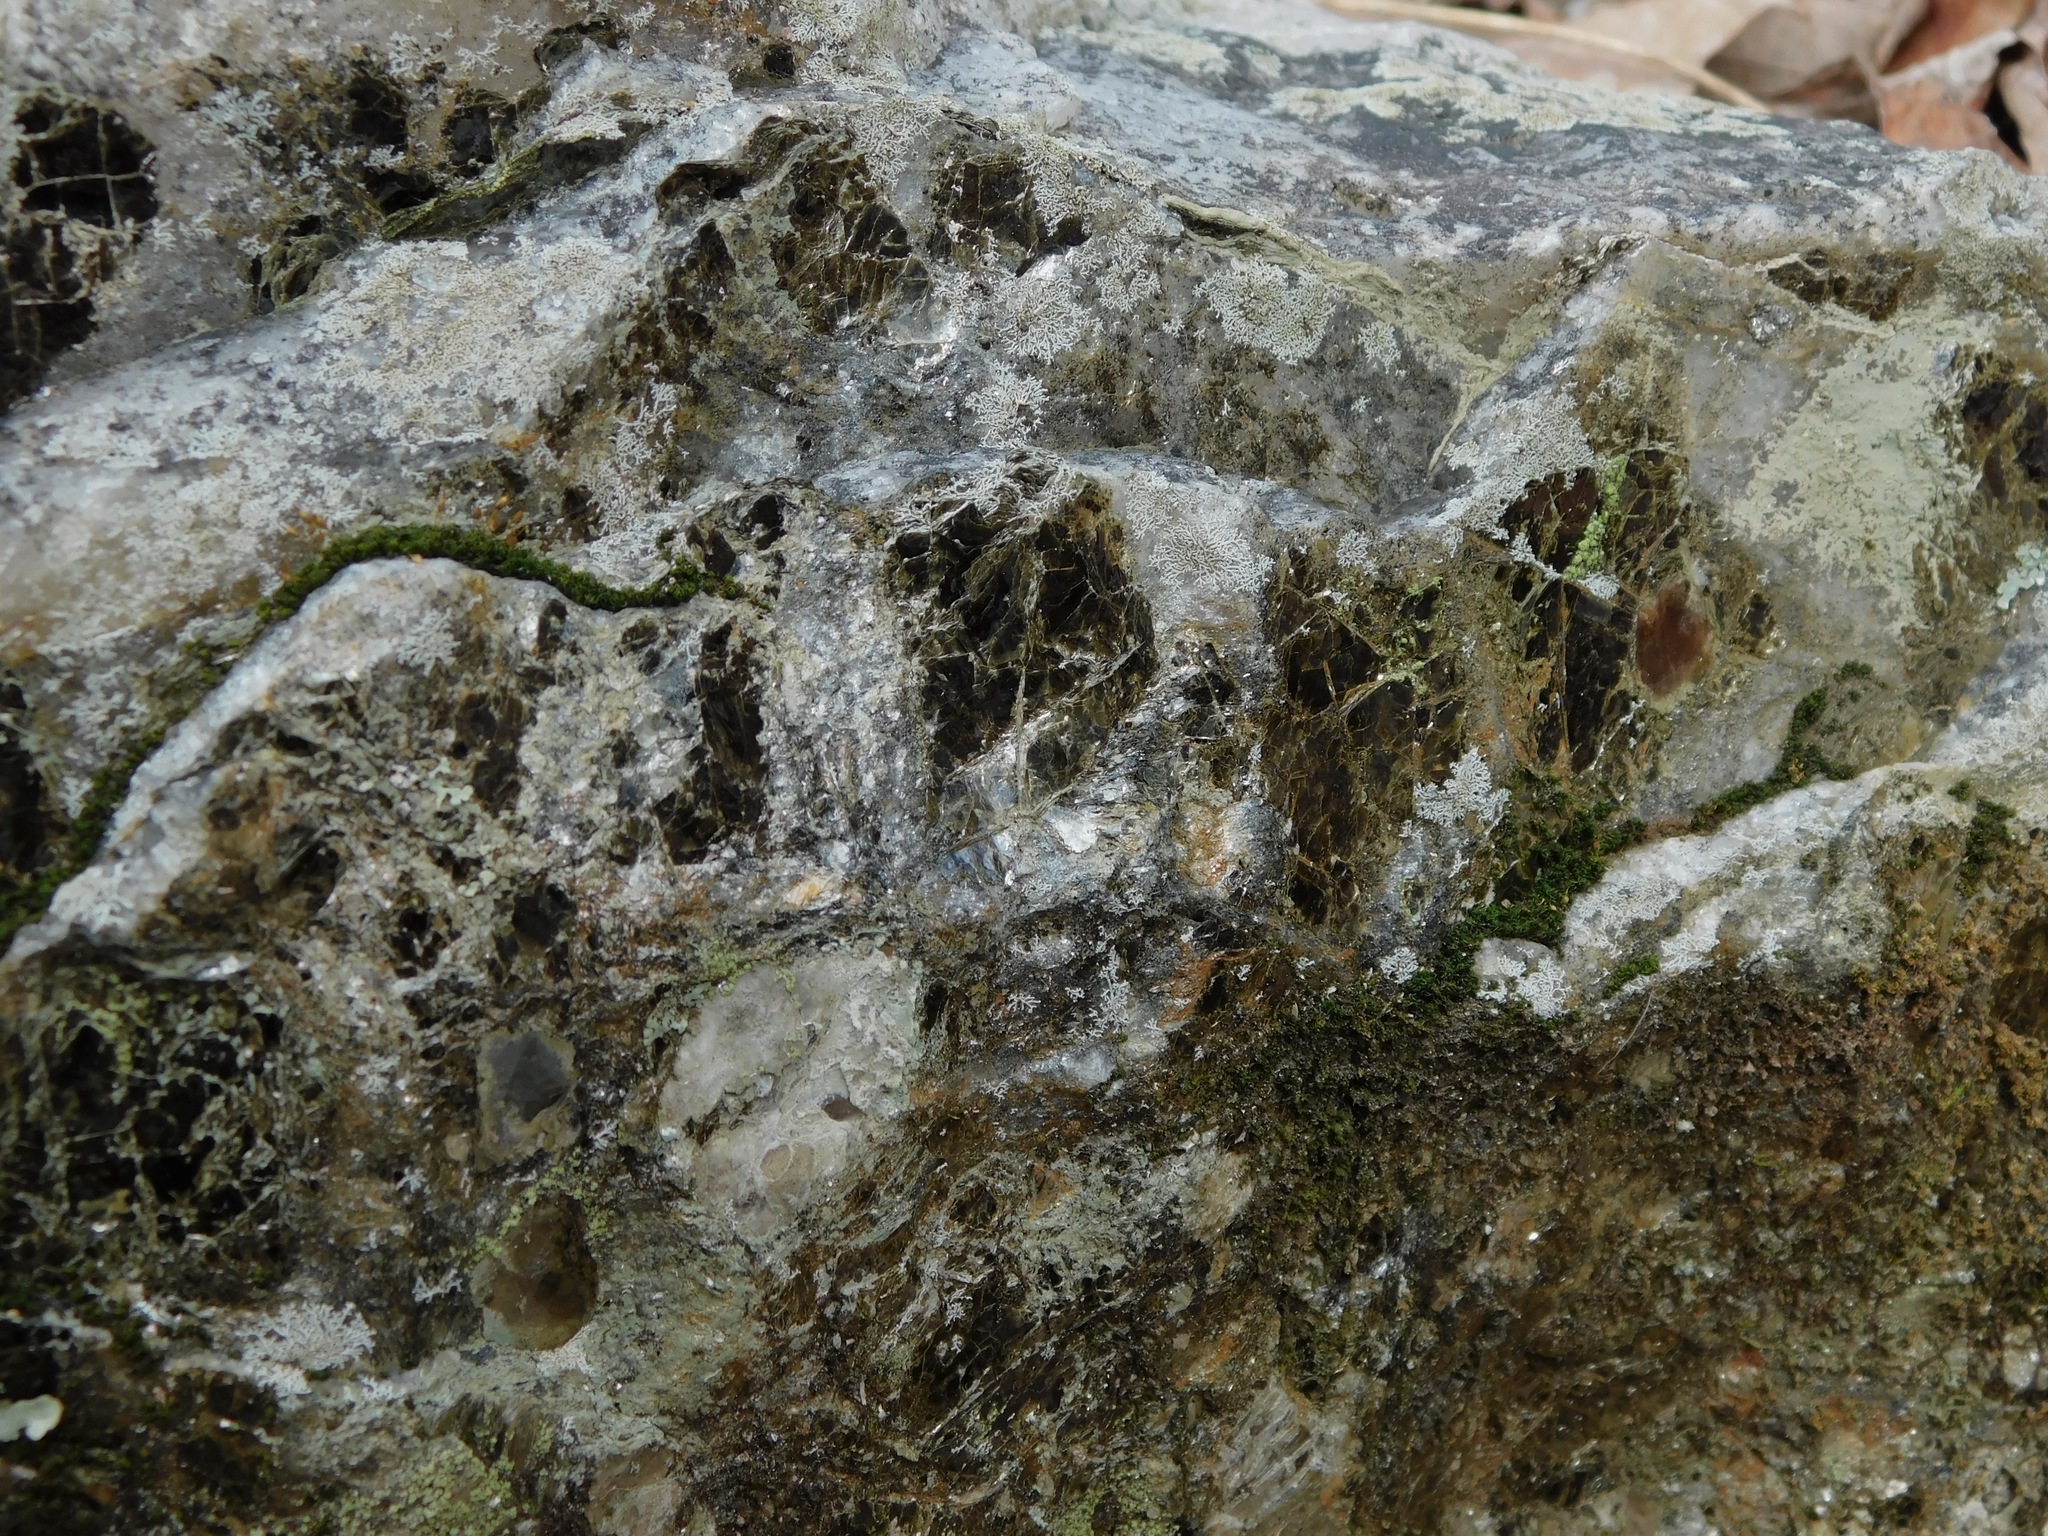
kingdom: Fungi
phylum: Ascomycota
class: Lecanoromycetes
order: Caliciales
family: Physciaceae
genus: Physcia
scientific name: Physcia subtilis
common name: Slender rosette lichen
